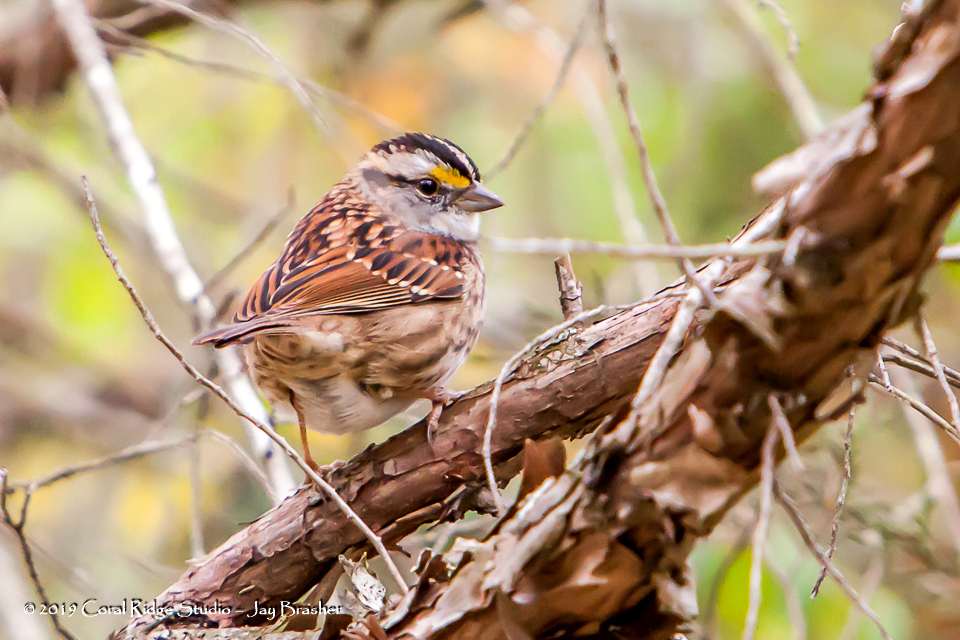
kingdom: Animalia
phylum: Chordata
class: Aves
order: Passeriformes
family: Passerellidae
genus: Zonotrichia
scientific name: Zonotrichia albicollis
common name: White-throated sparrow
